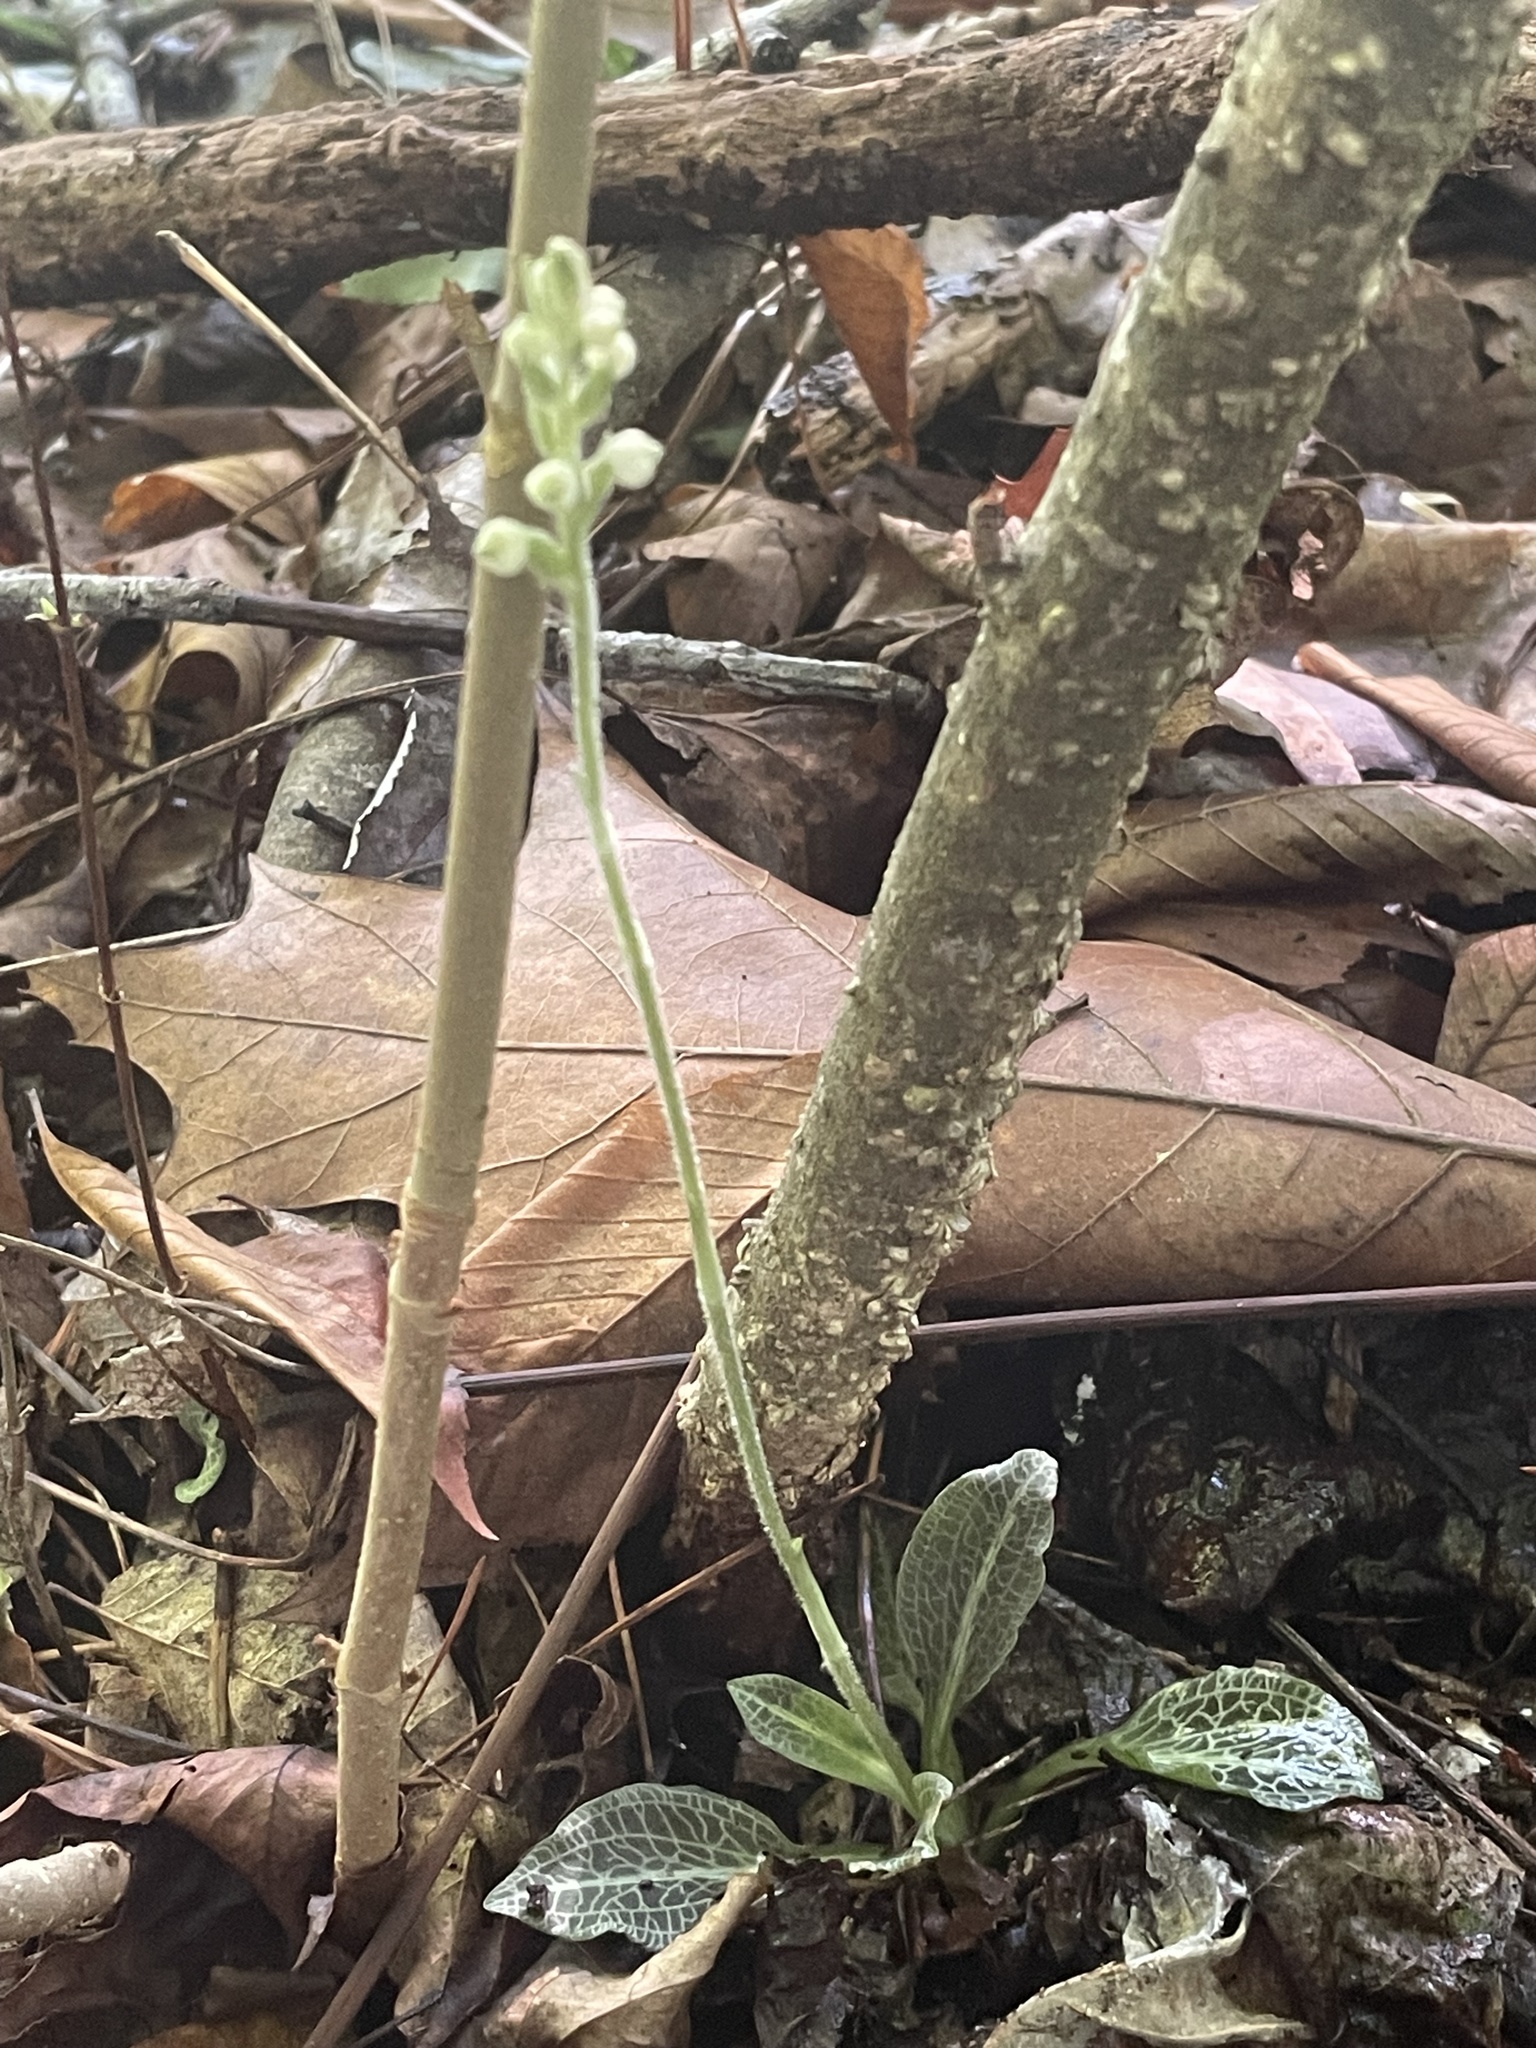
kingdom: Plantae
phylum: Tracheophyta
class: Liliopsida
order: Asparagales
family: Orchidaceae
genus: Goodyera
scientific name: Goodyera pubescens
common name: Downy rattlesnake-plantain
